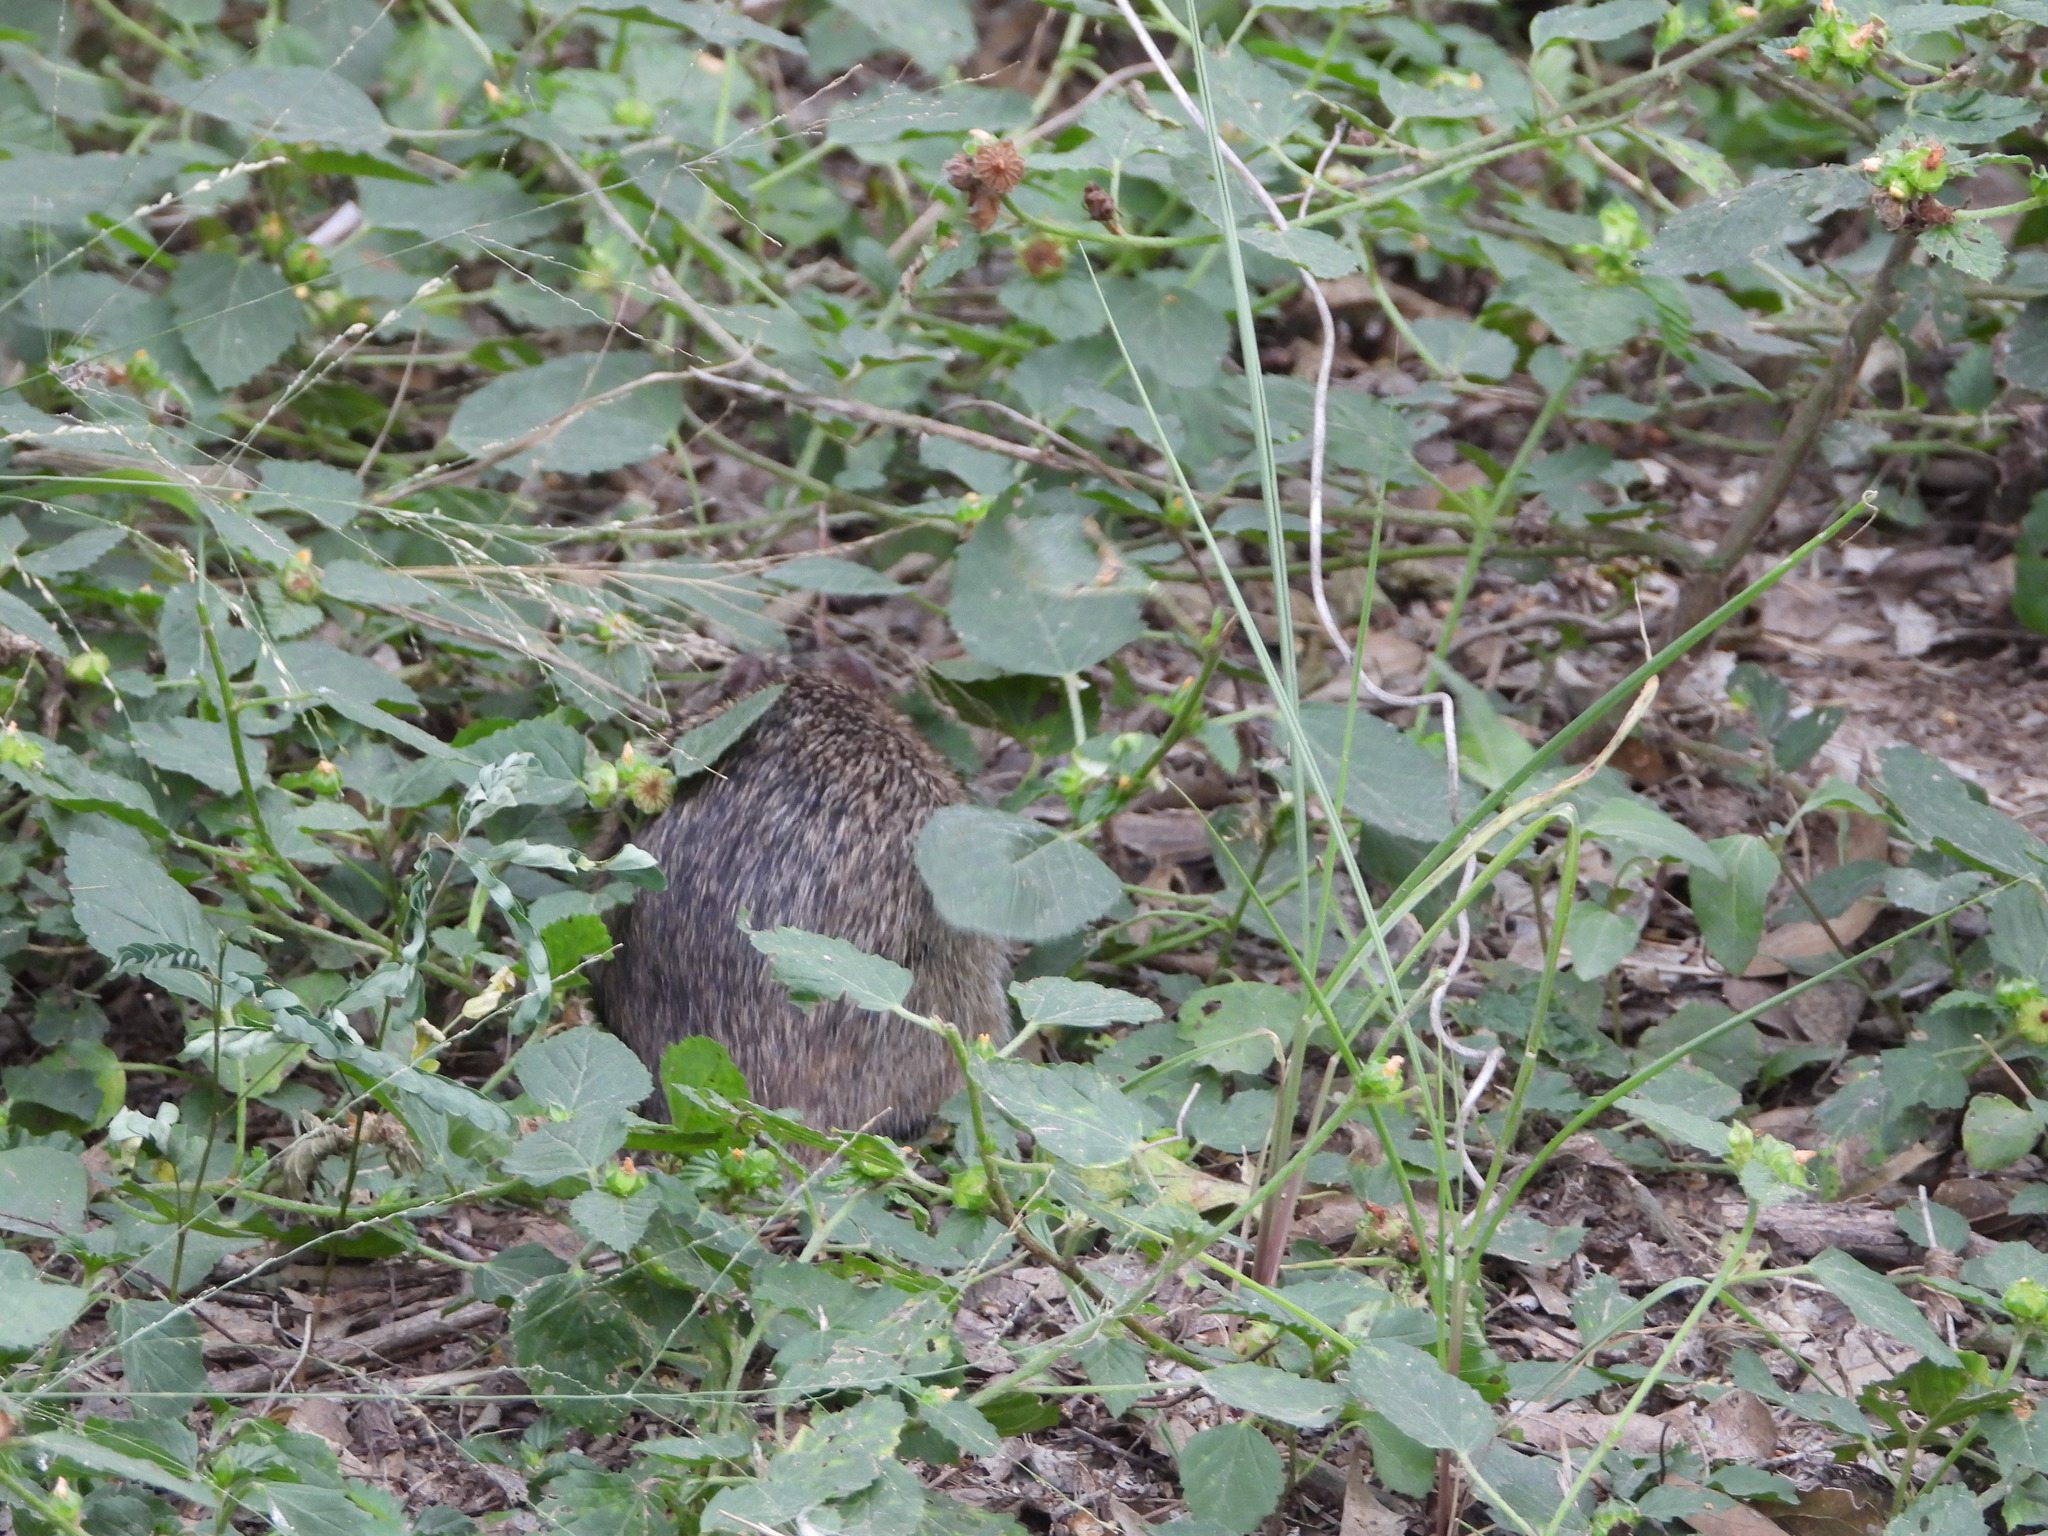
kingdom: Animalia
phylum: Chordata
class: Mammalia
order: Rodentia
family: Cricetidae
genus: Sigmodon
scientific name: Sigmodon hispidus
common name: Hispid cotton rat
